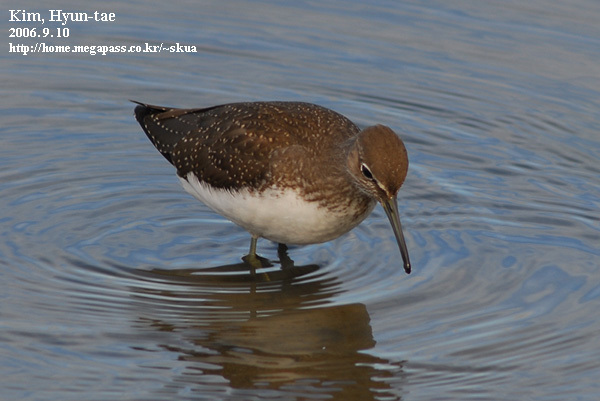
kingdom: Animalia
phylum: Chordata
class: Aves
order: Charadriiformes
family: Scolopacidae
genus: Tringa
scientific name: Tringa ochropus
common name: Green sandpiper
